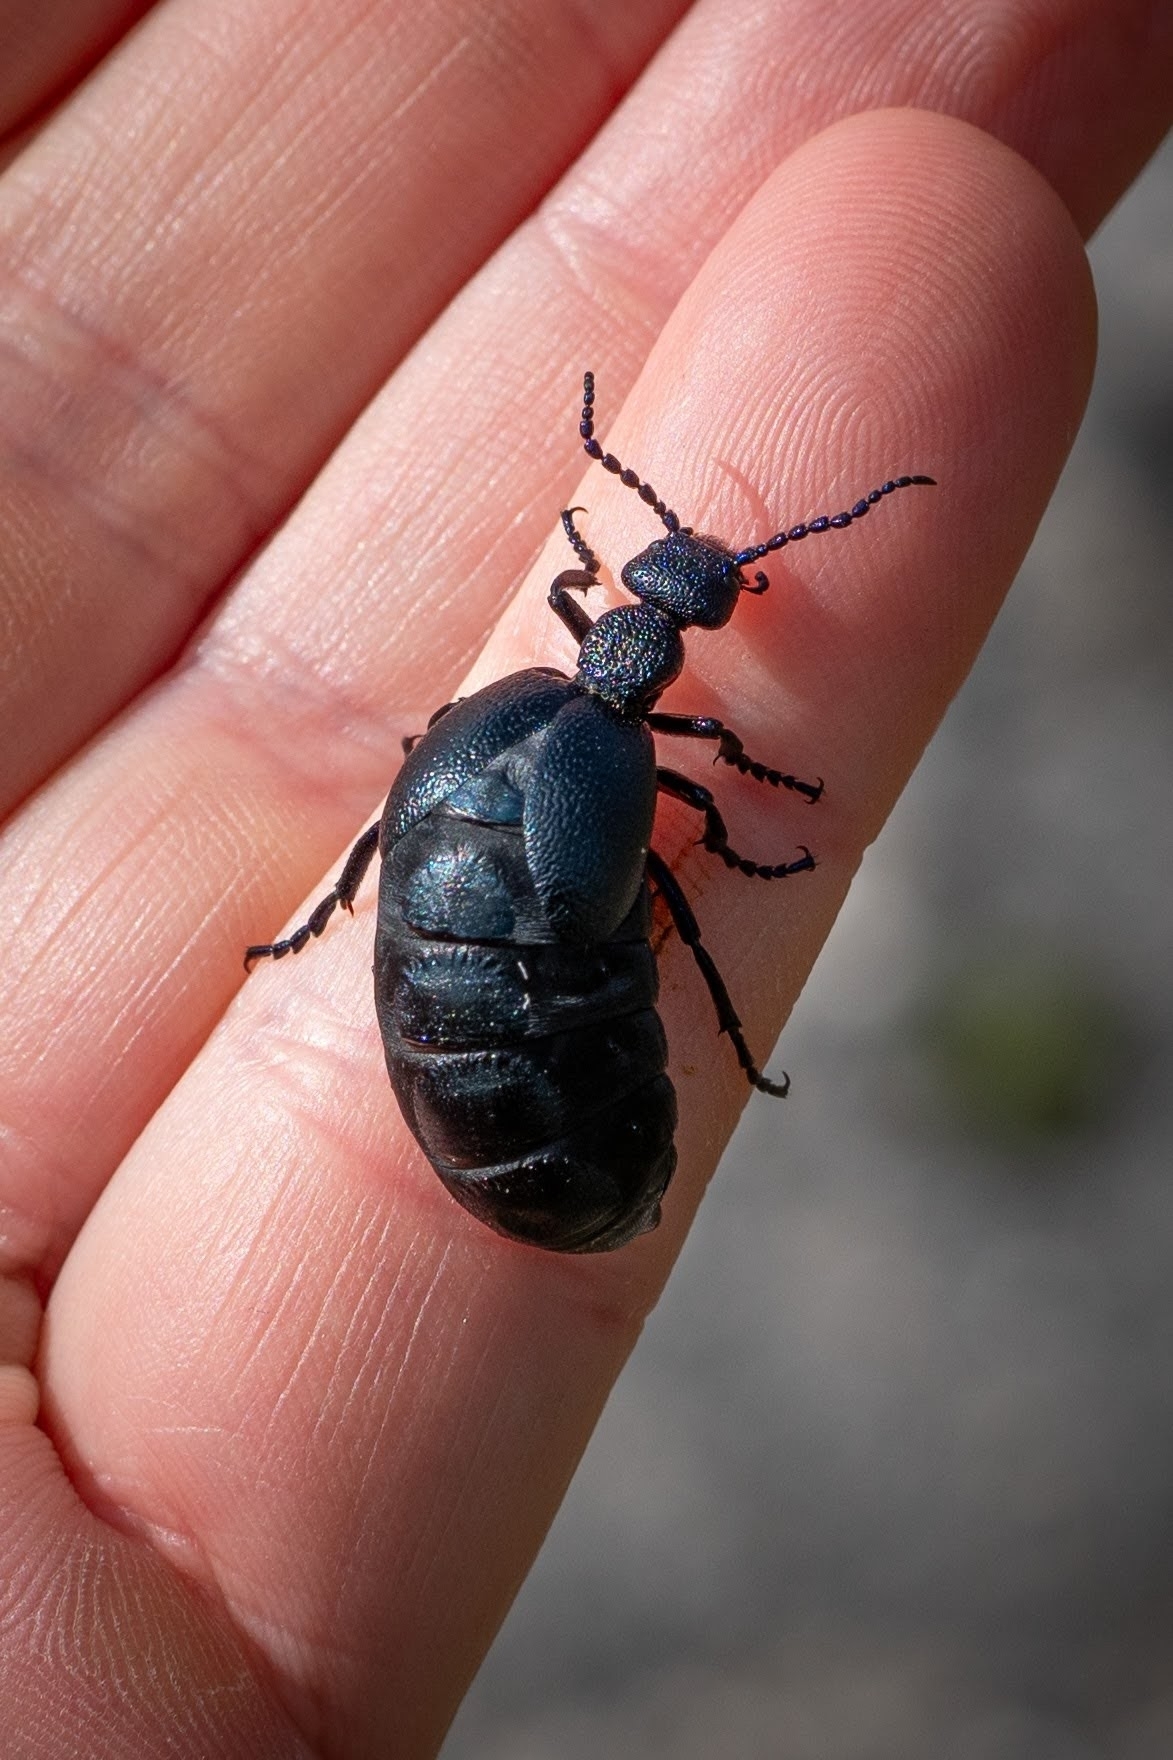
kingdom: Animalia
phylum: Arthropoda
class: Insecta
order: Coleoptera
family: Meloidae
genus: Meloe
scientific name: Meloe proscarabaeus
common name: Black oil-beetle
